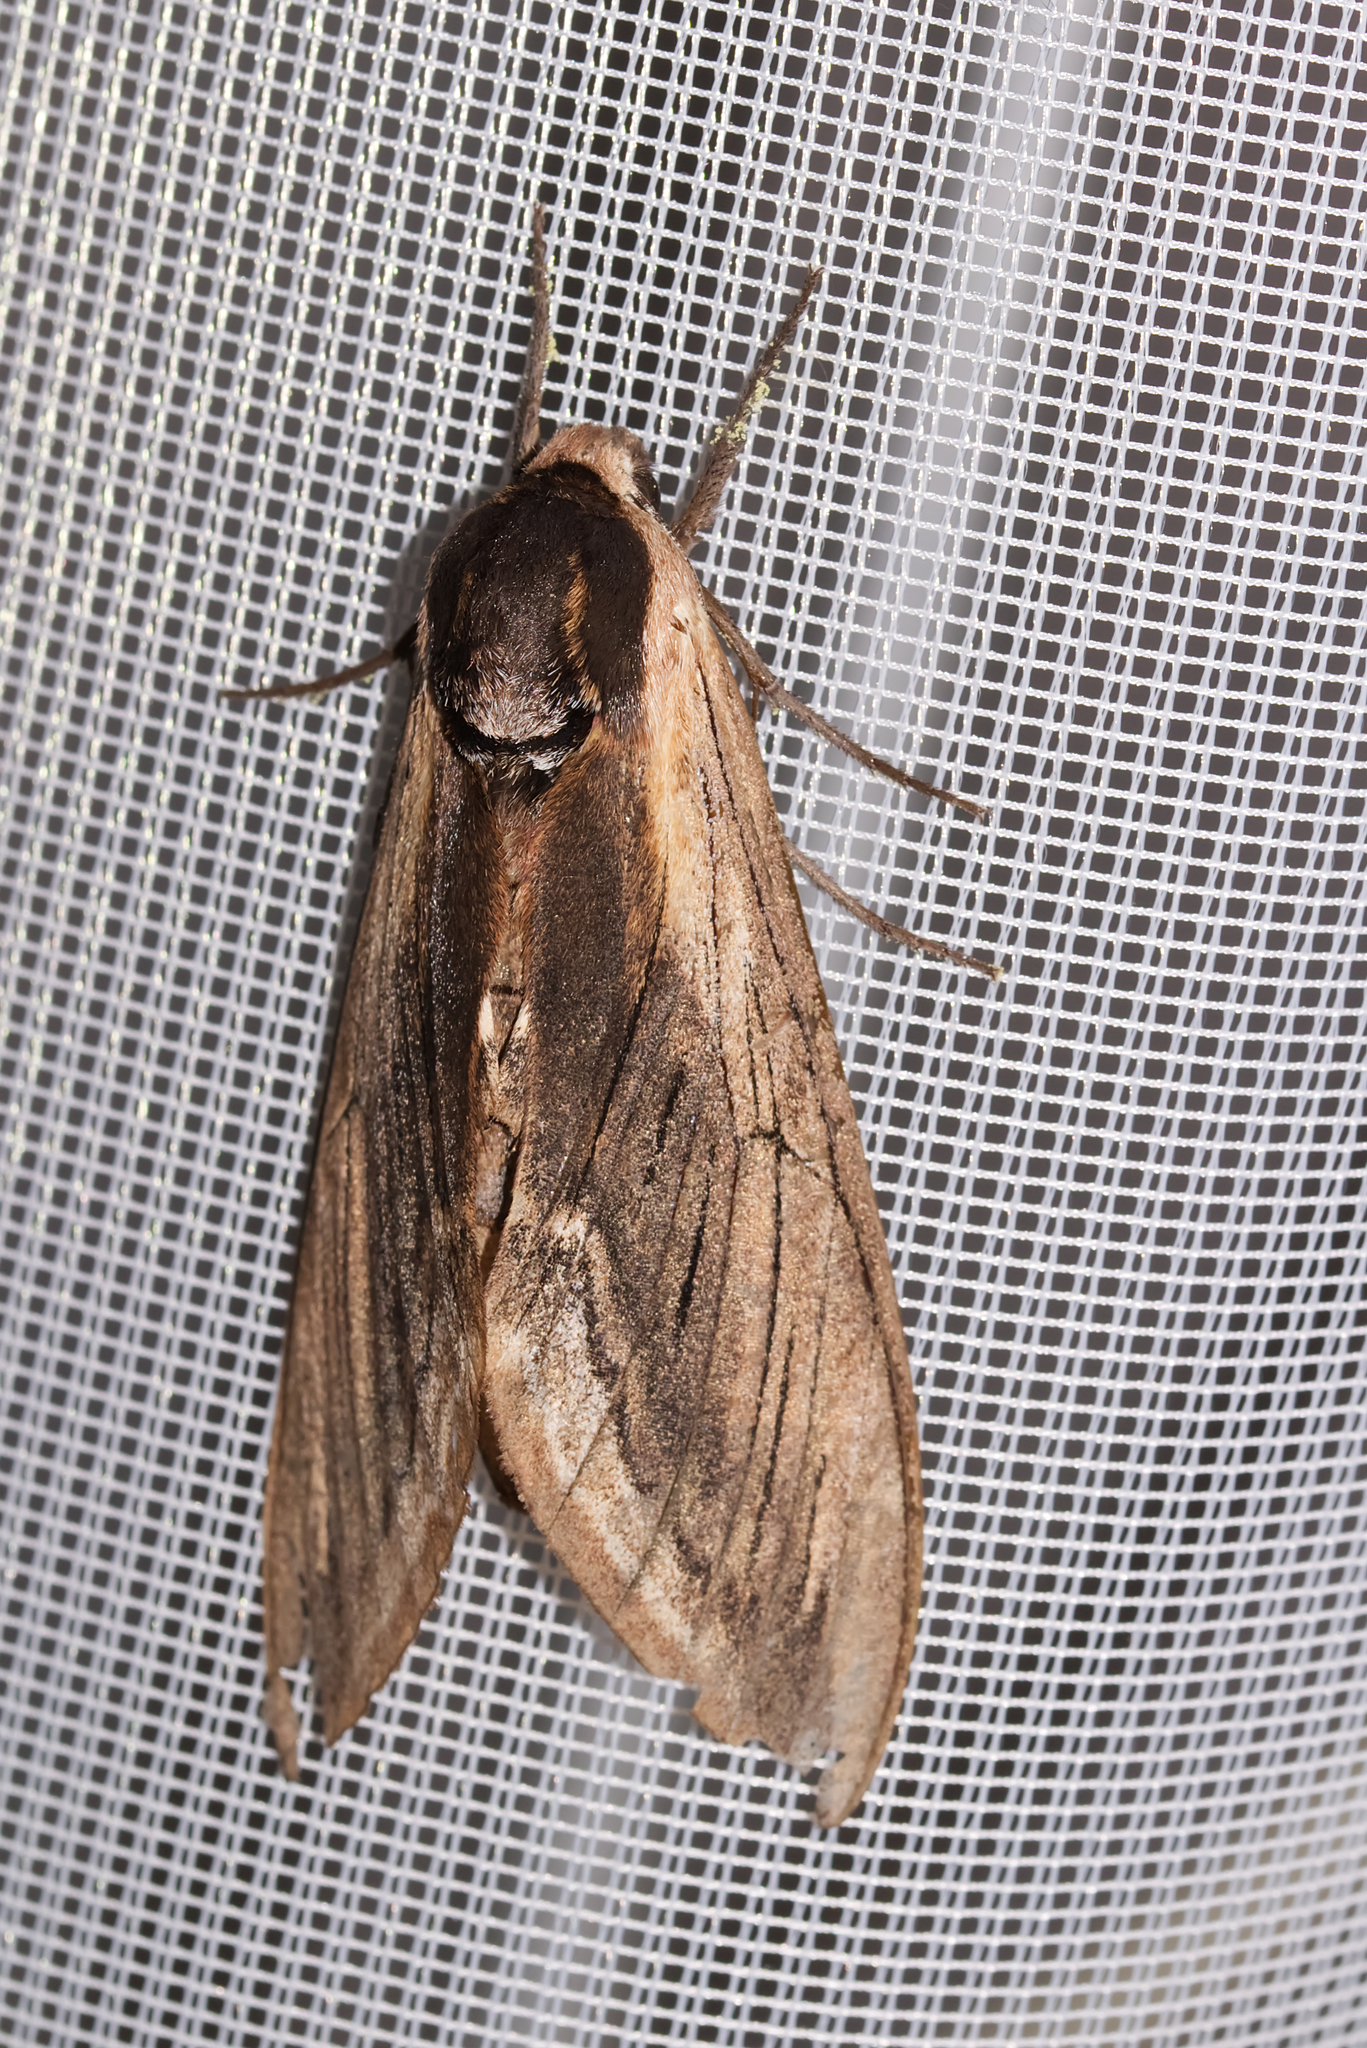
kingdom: Animalia
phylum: Arthropoda
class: Insecta
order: Lepidoptera
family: Sphingidae
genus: Sphinx
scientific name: Sphinx ligustri
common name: Privet hawk-moth
